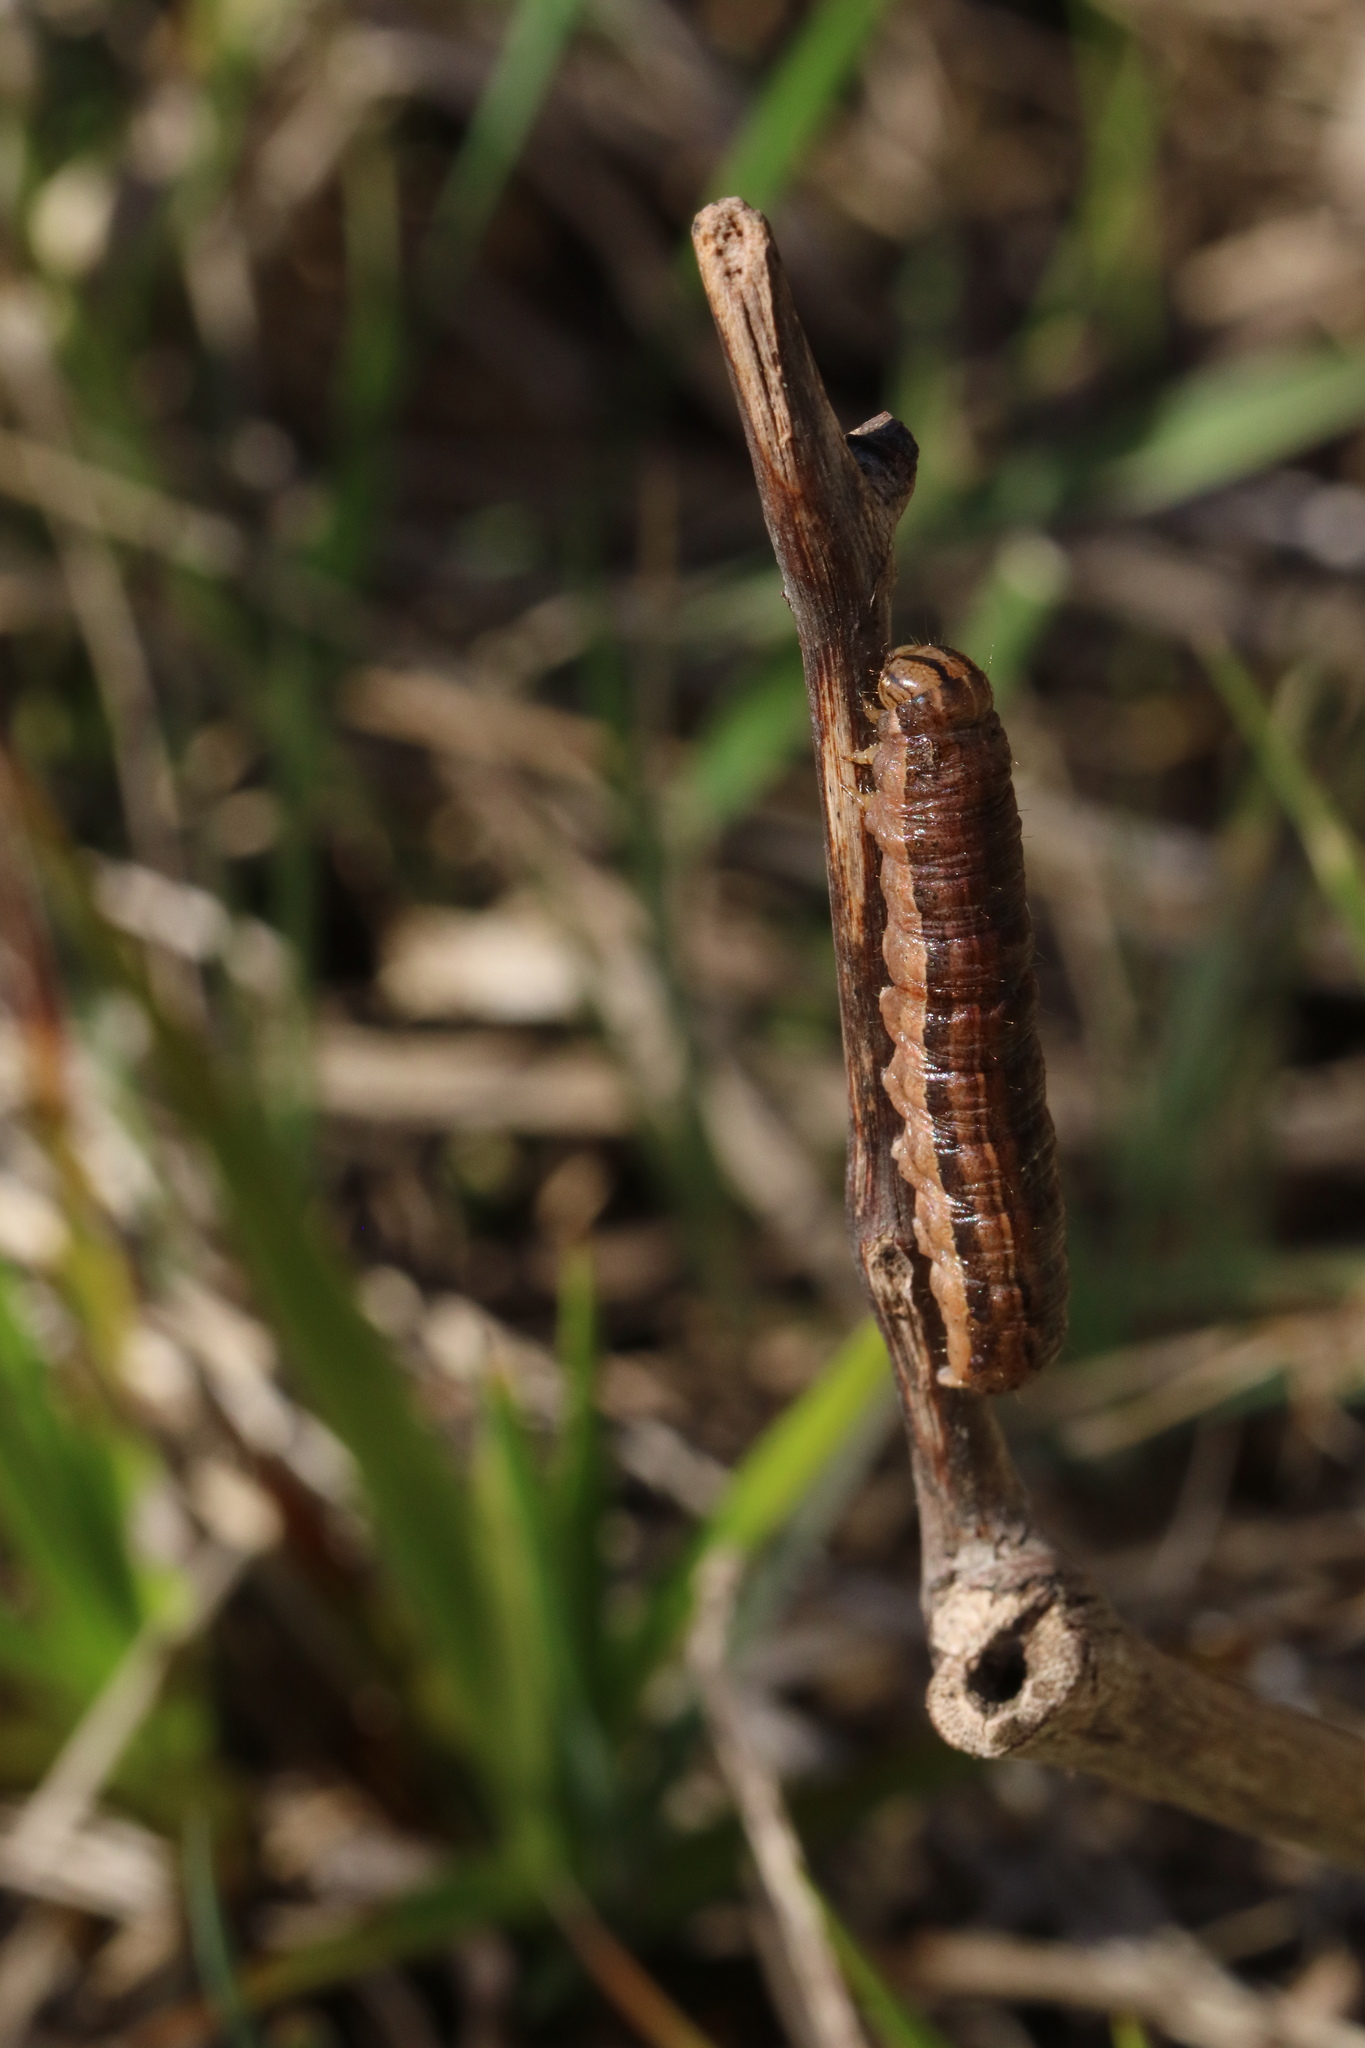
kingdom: Animalia
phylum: Arthropoda
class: Insecta
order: Lepidoptera
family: Noctuidae
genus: Mythimna
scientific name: Mythimna unipuncta
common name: White-speck
